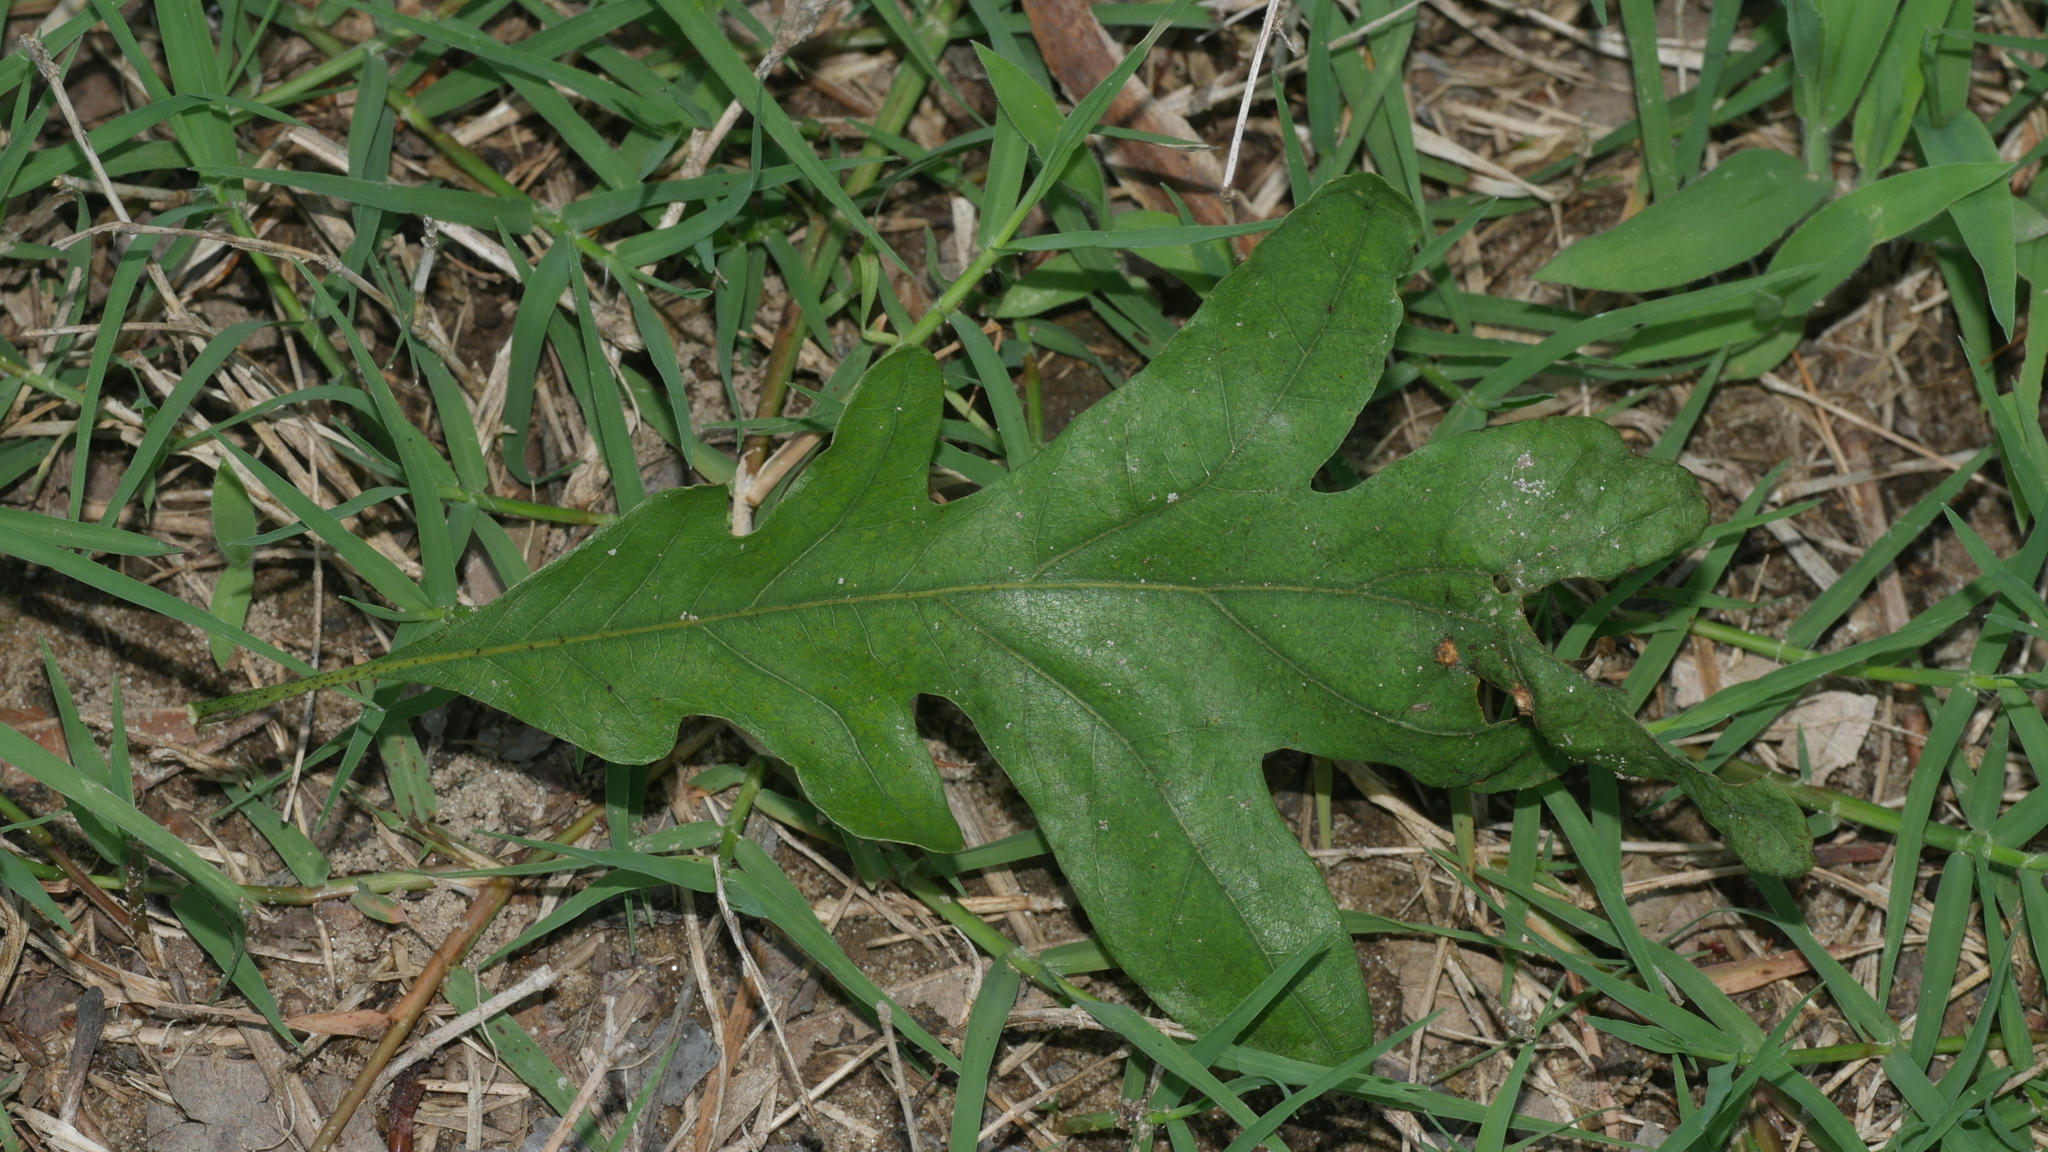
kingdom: Plantae
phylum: Tracheophyta
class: Magnoliopsida
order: Fagales
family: Fagaceae
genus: Quercus
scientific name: Quercus alba
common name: White oak
